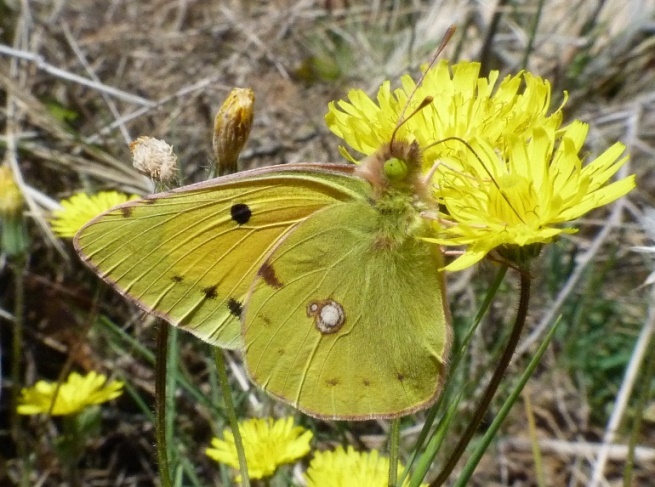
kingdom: Animalia
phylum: Arthropoda
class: Insecta
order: Lepidoptera
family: Pieridae
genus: Colias
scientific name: Colias croceus
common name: Clouded yellow
